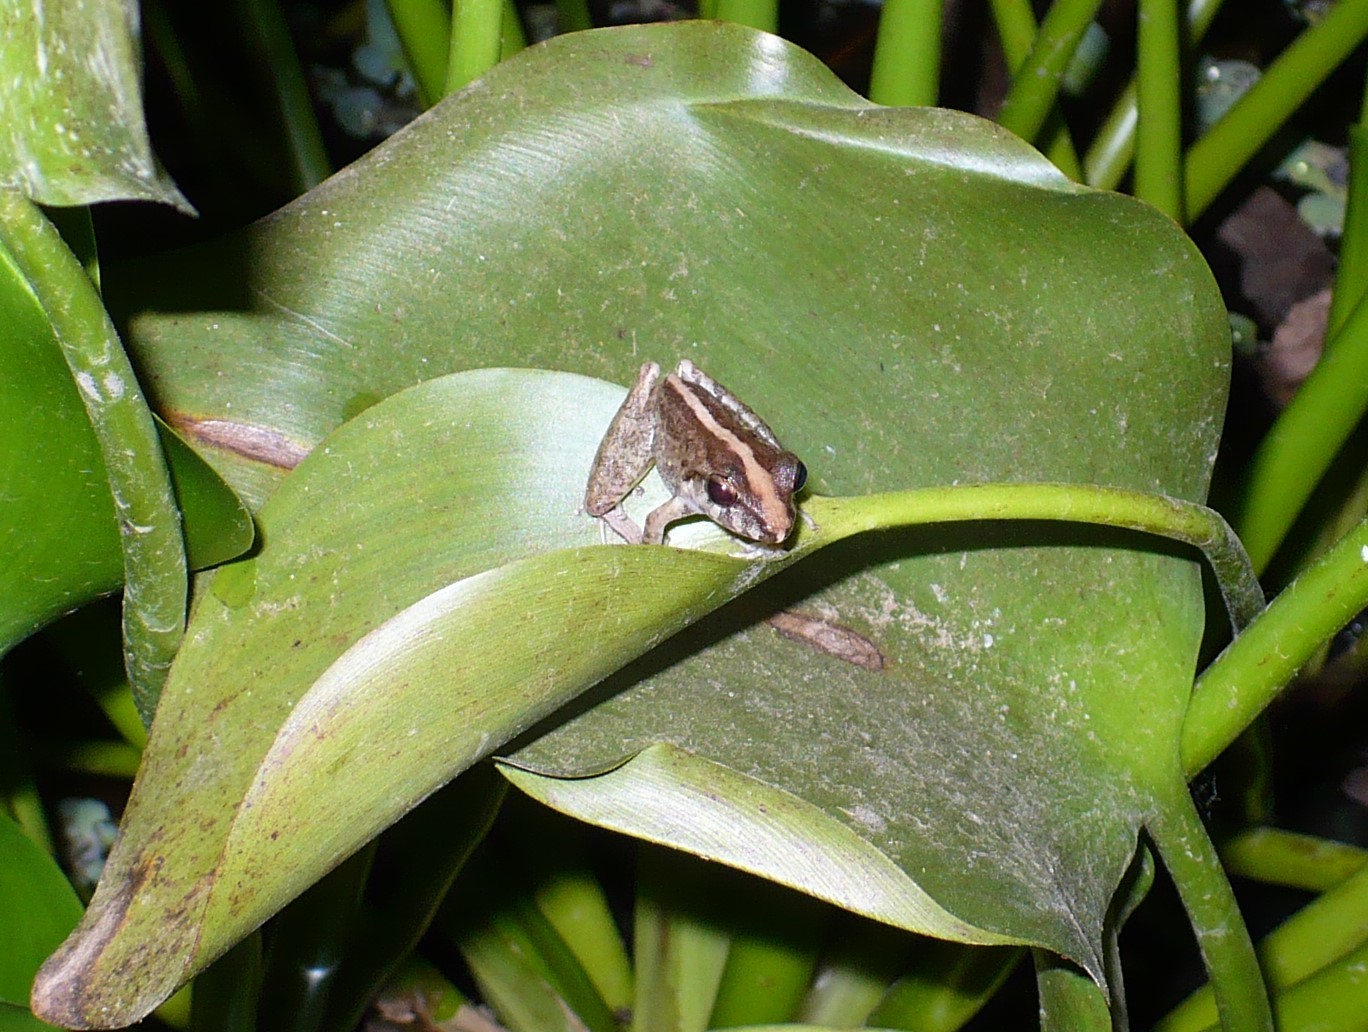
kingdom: Animalia
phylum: Chordata
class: Amphibia
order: Anura
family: Craugastoridae
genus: Craugastor
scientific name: Craugastor fitzingeri
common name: Fitzinger's robber frog
